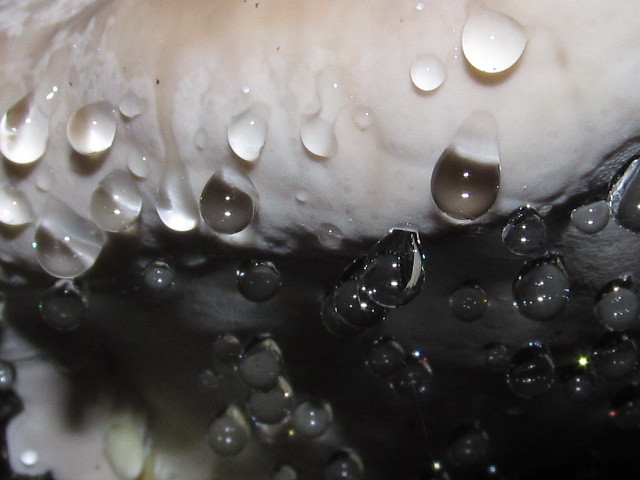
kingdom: Fungi
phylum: Basidiomycota
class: Agaricomycetes
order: Polyporales
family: Fomitopsidaceae
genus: Fomitopsis
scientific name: Fomitopsis mounceae
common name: Northern red belt
